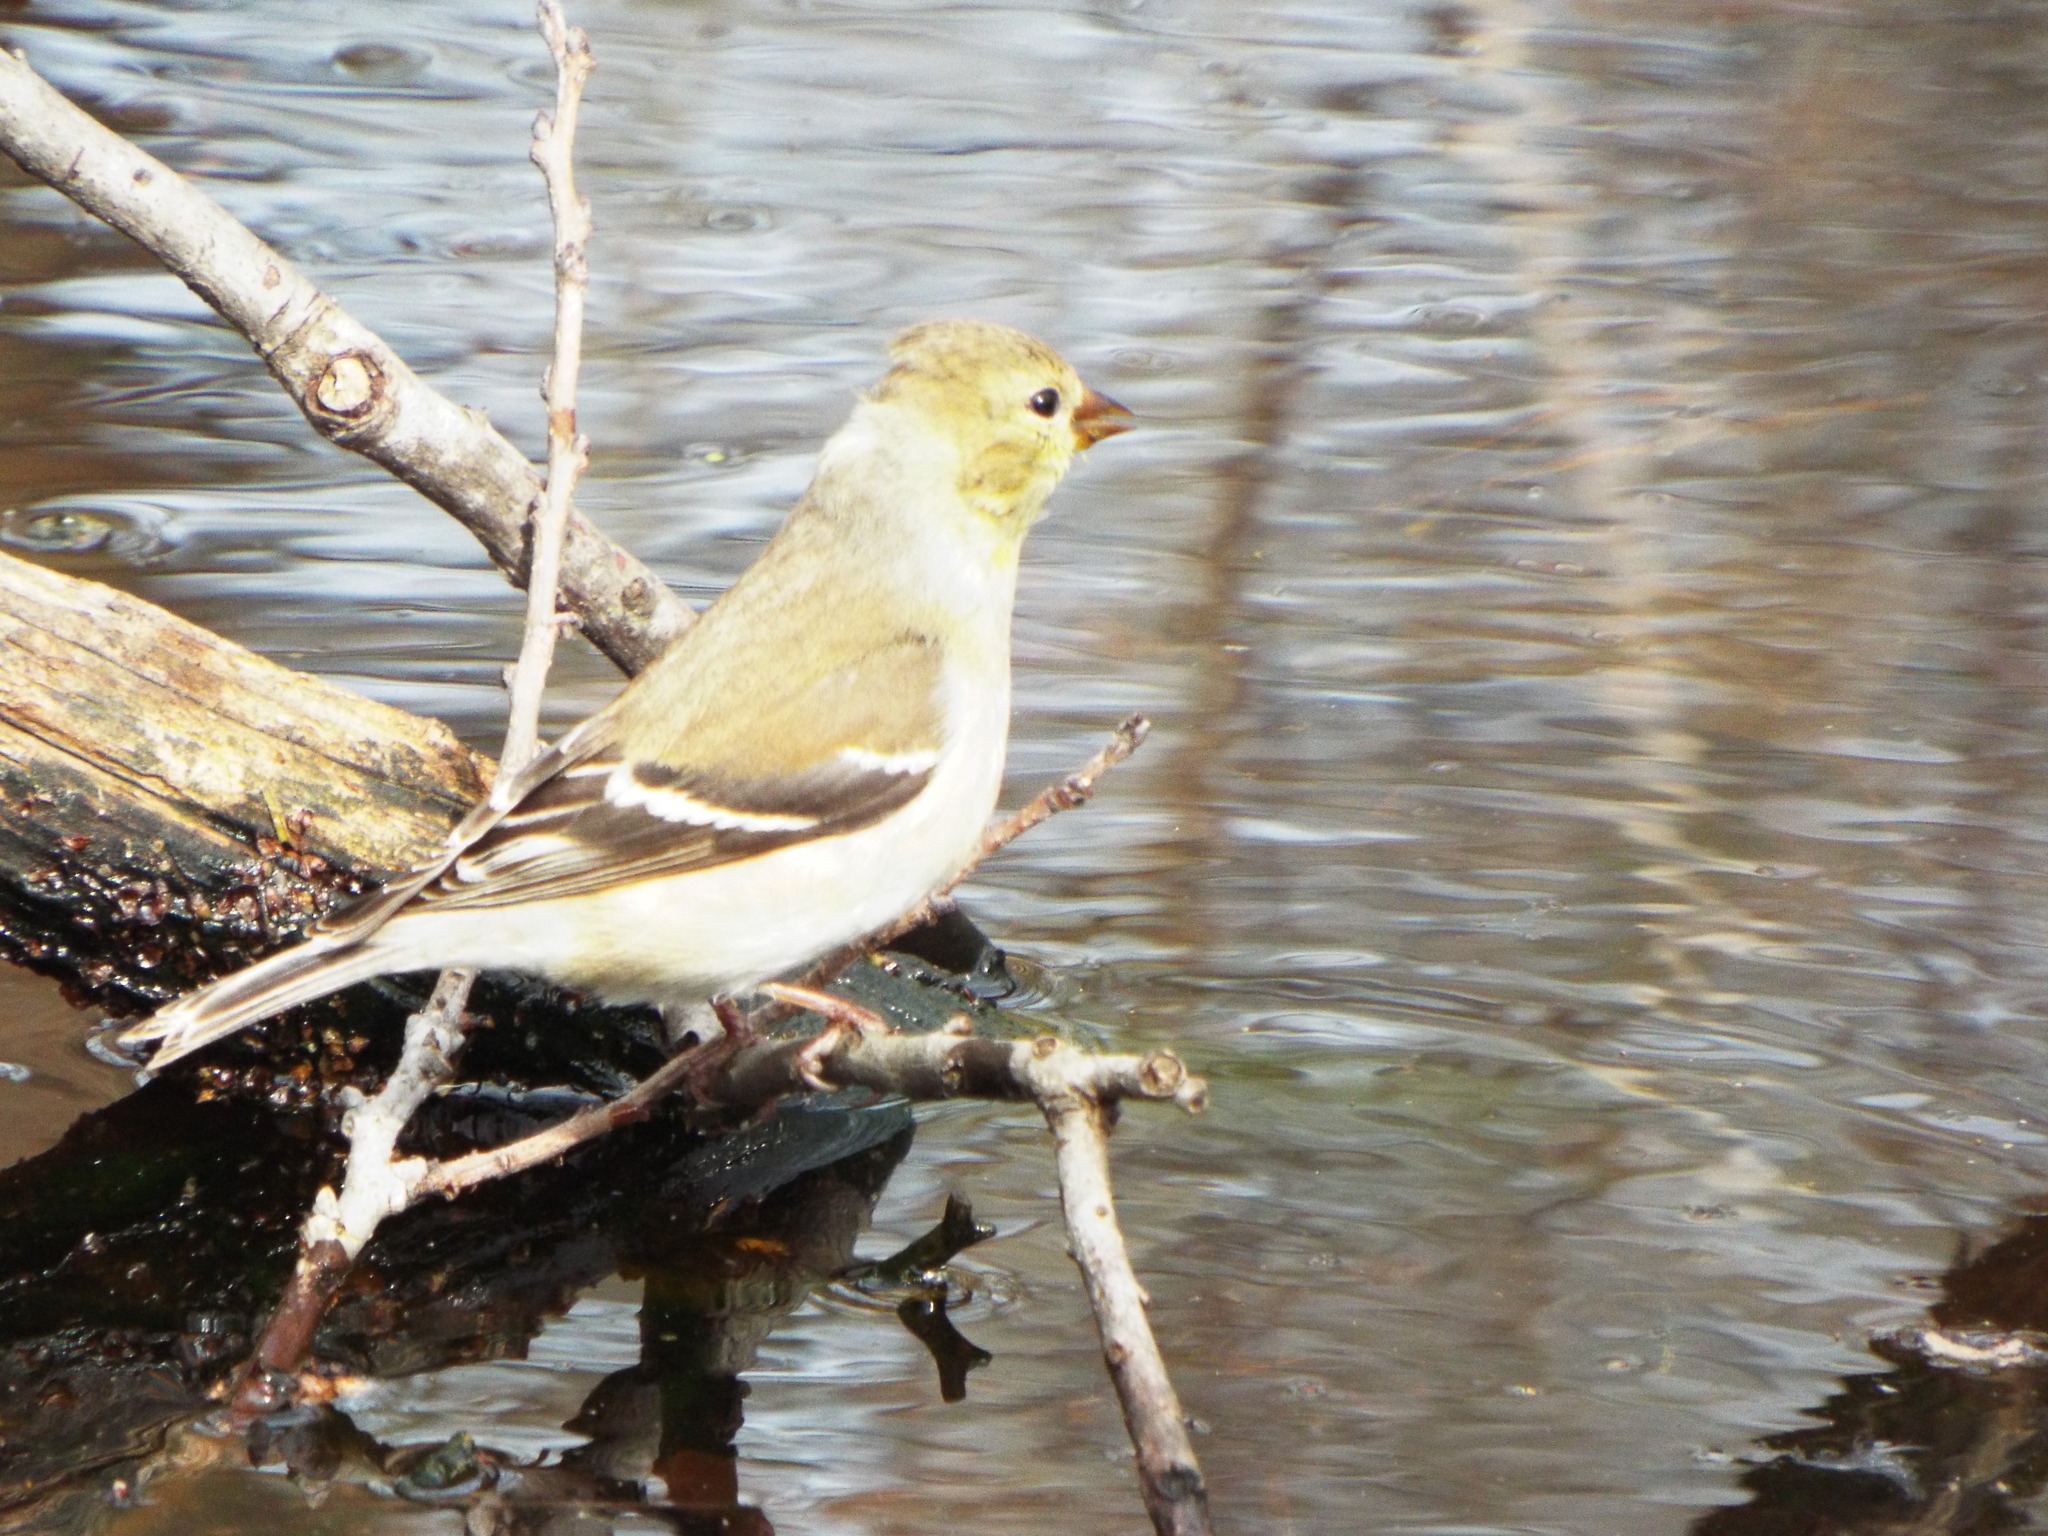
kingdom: Animalia
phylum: Chordata
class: Aves
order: Passeriformes
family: Fringillidae
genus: Spinus
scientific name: Spinus tristis
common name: American goldfinch
